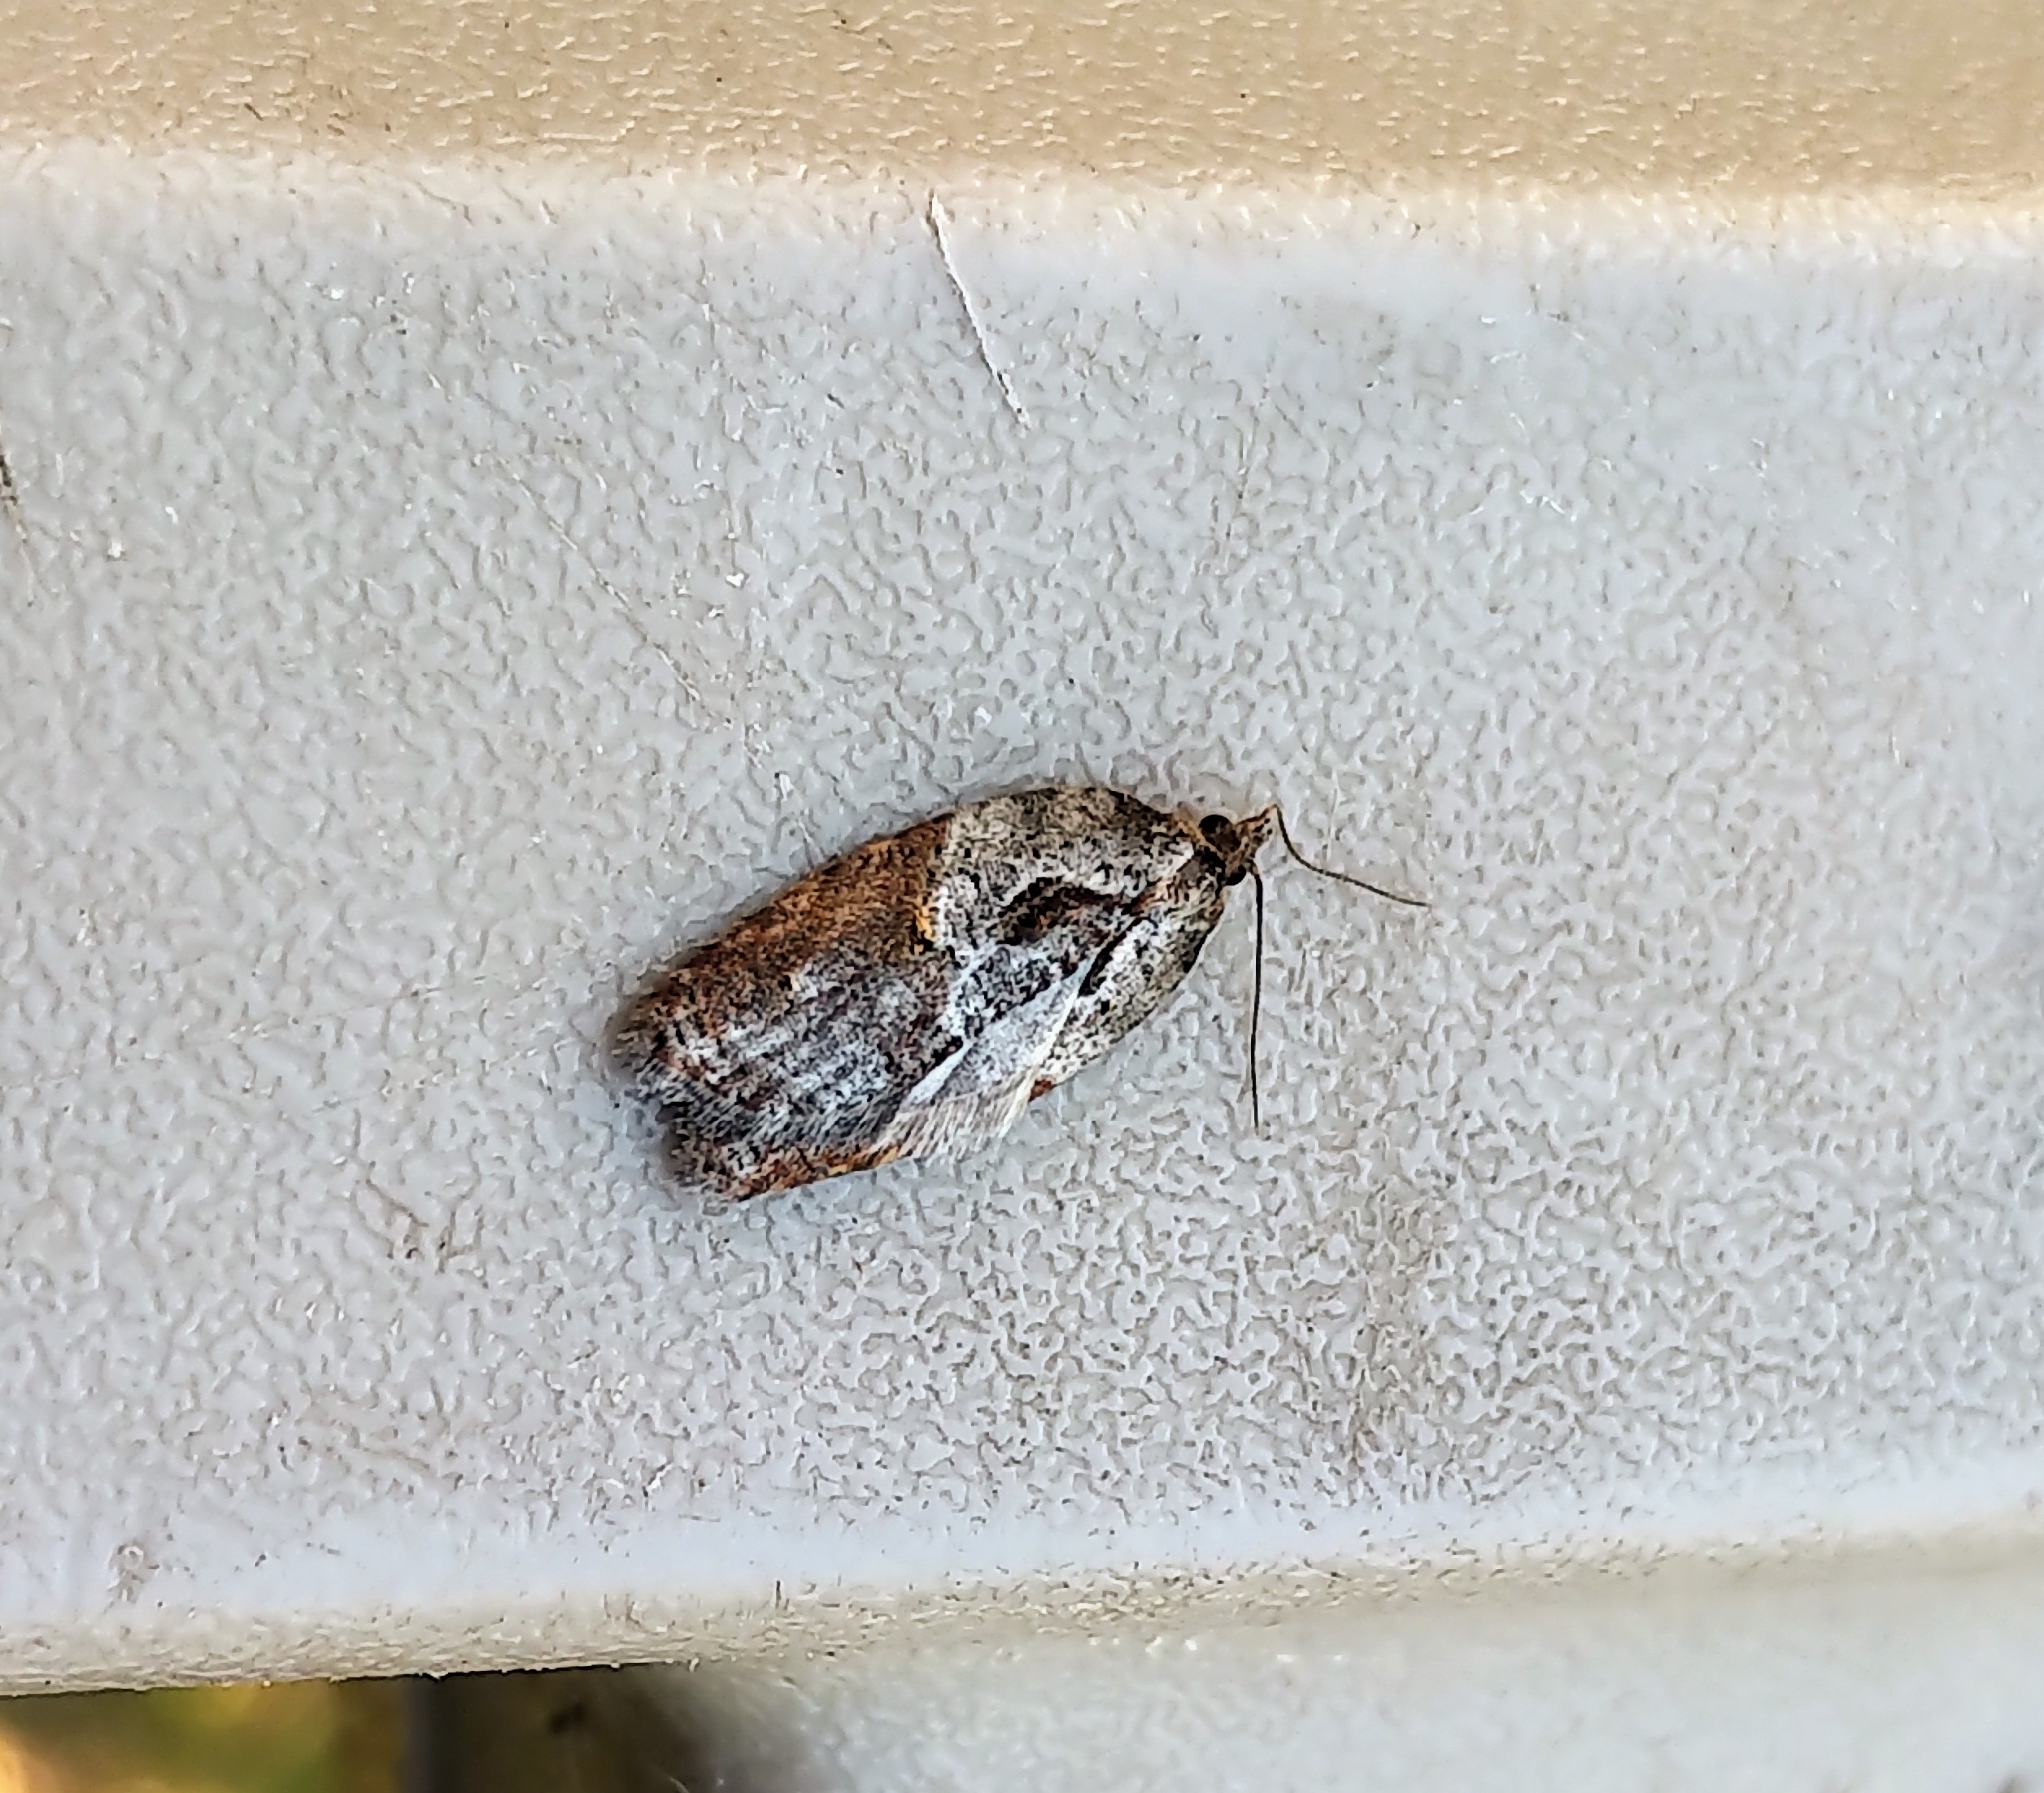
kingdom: Animalia
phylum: Arthropoda
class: Insecta
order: Lepidoptera
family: Tortricidae
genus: Acleris
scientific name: Acleris robinsoniana
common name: Robinson's acleris moth
